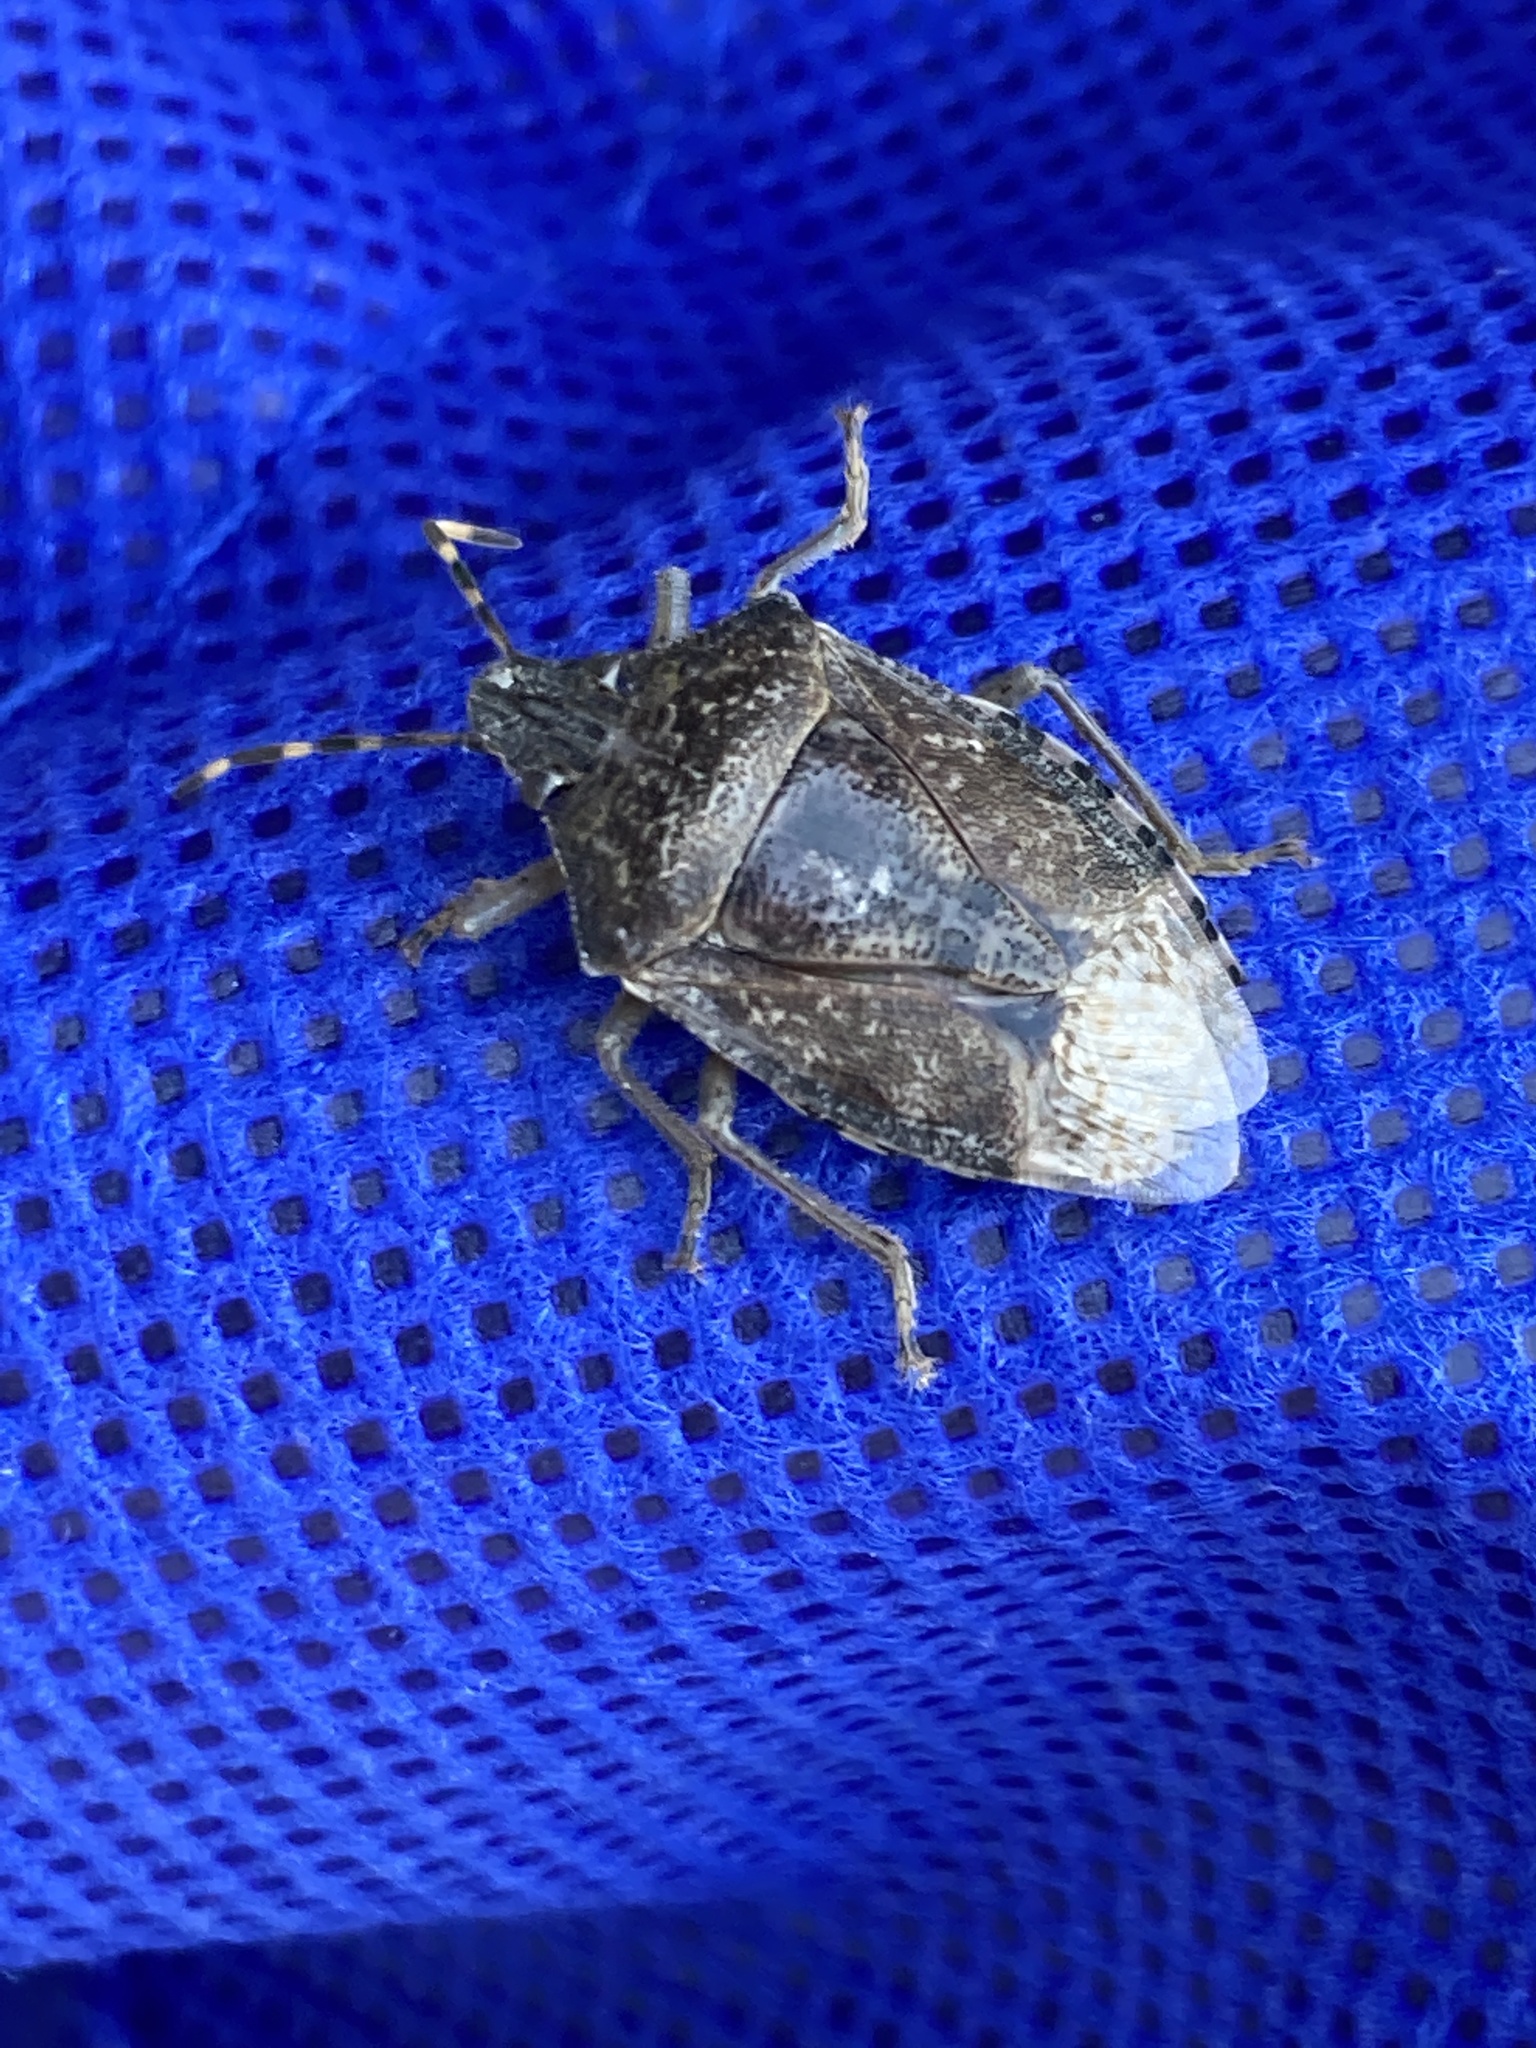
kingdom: Animalia
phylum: Arthropoda
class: Insecta
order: Hemiptera
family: Pentatomidae
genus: Rhaphigaster
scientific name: Rhaphigaster nebulosa
